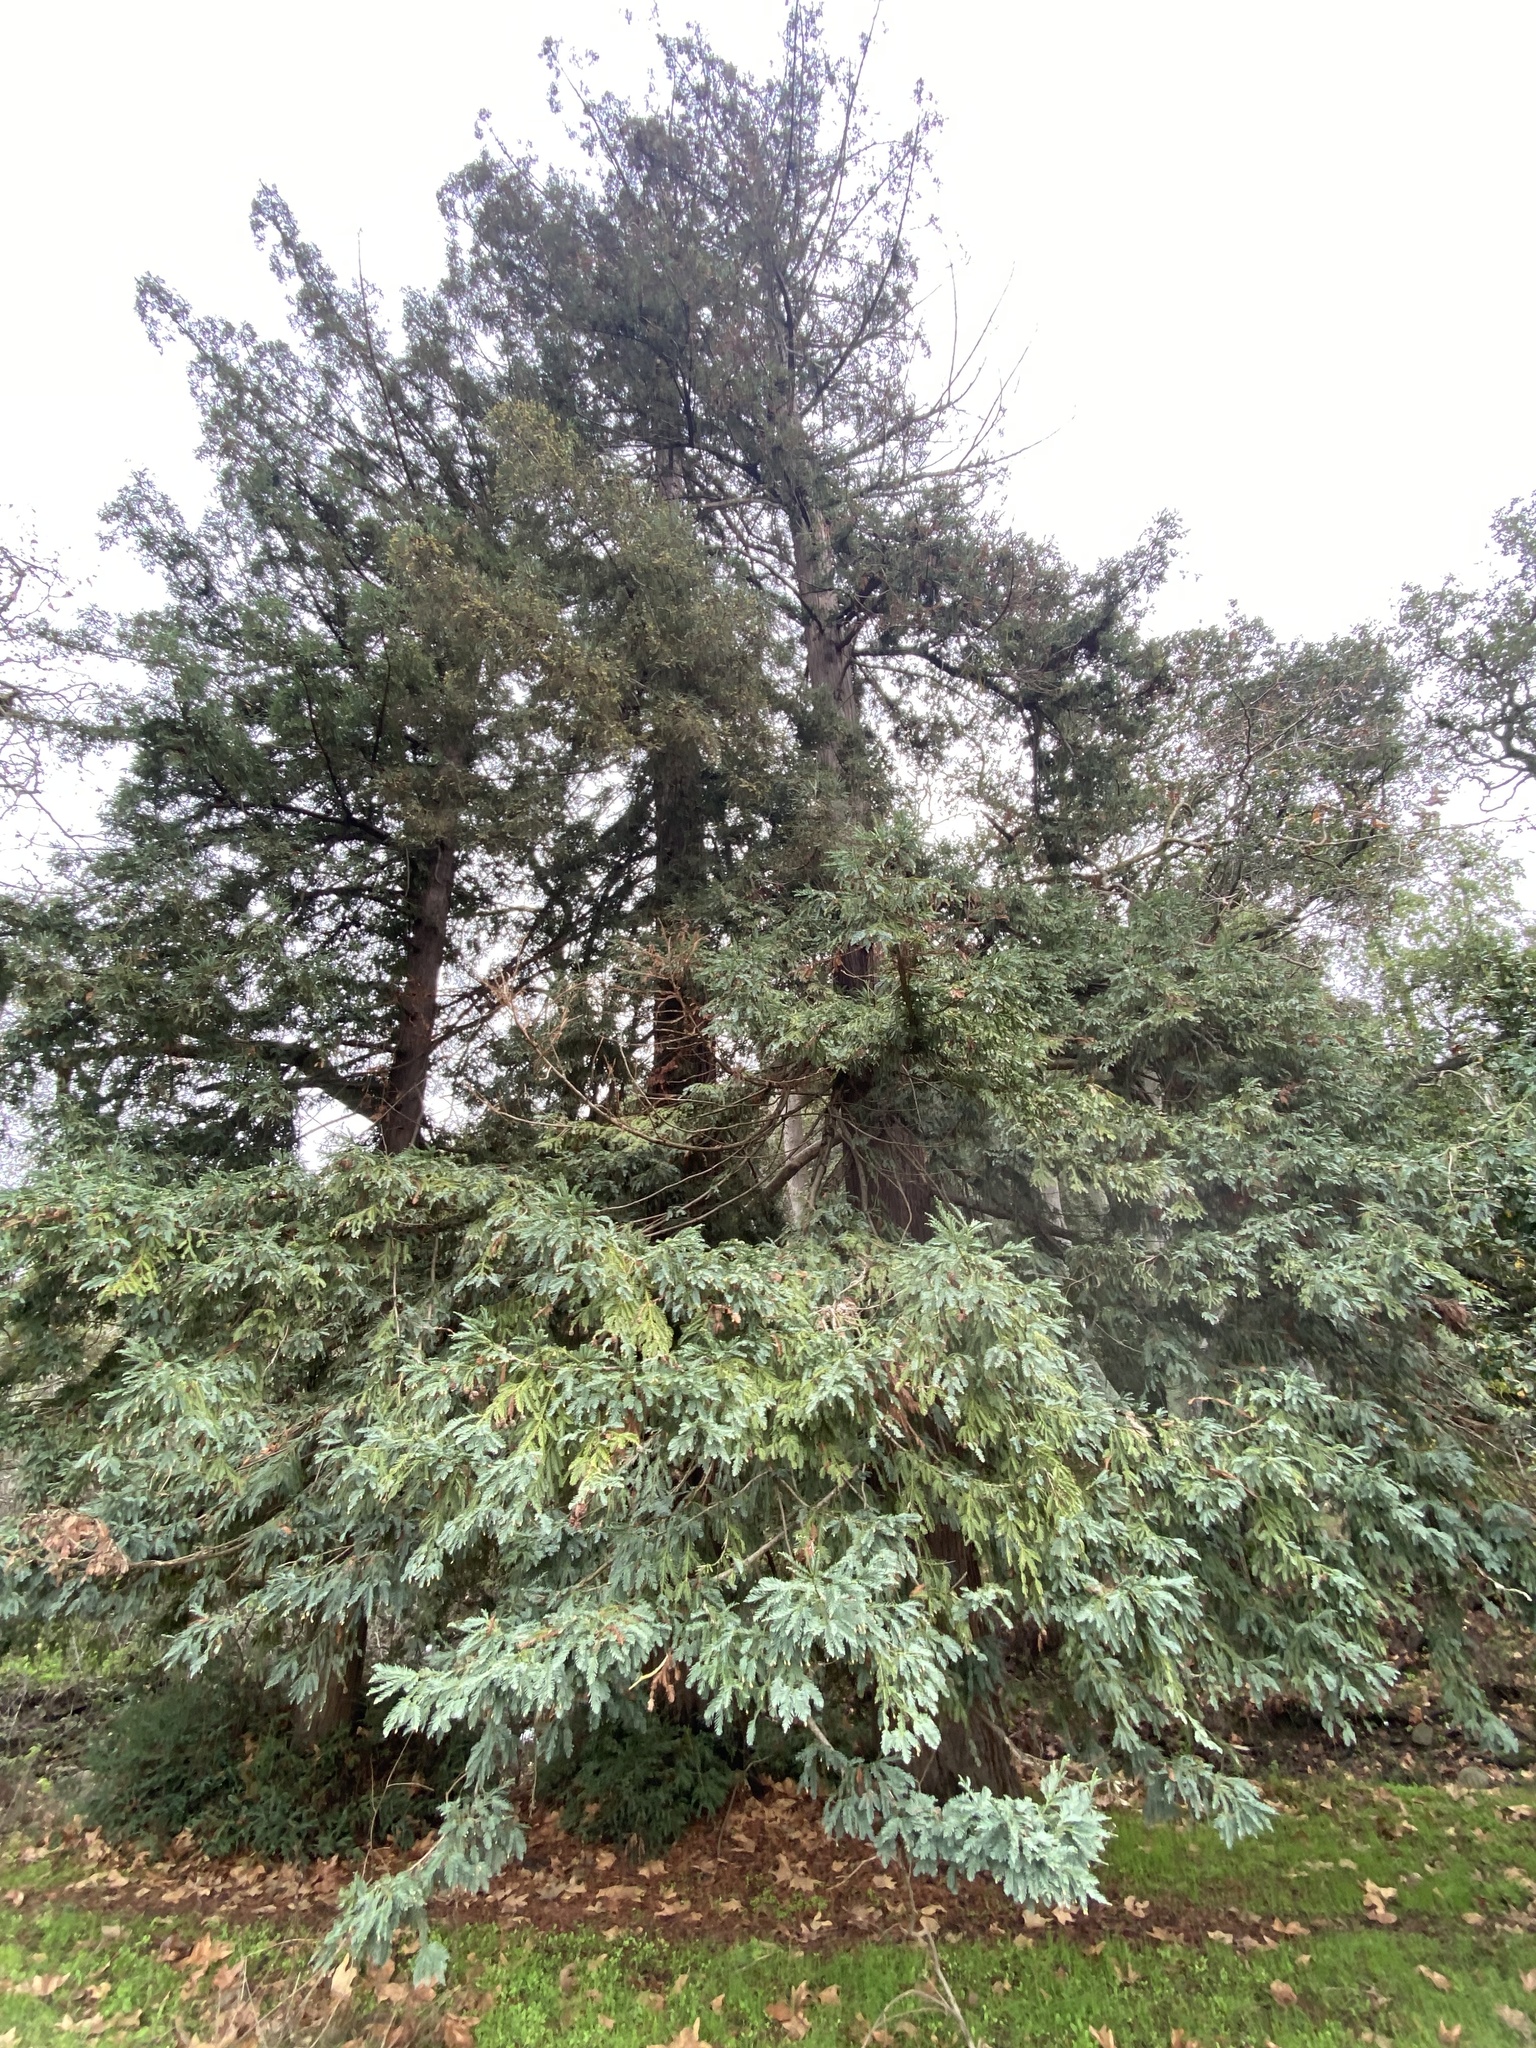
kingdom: Plantae
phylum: Tracheophyta
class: Pinopsida
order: Pinales
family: Cupressaceae
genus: Sequoia
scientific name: Sequoia sempervirens
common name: Coast redwood
